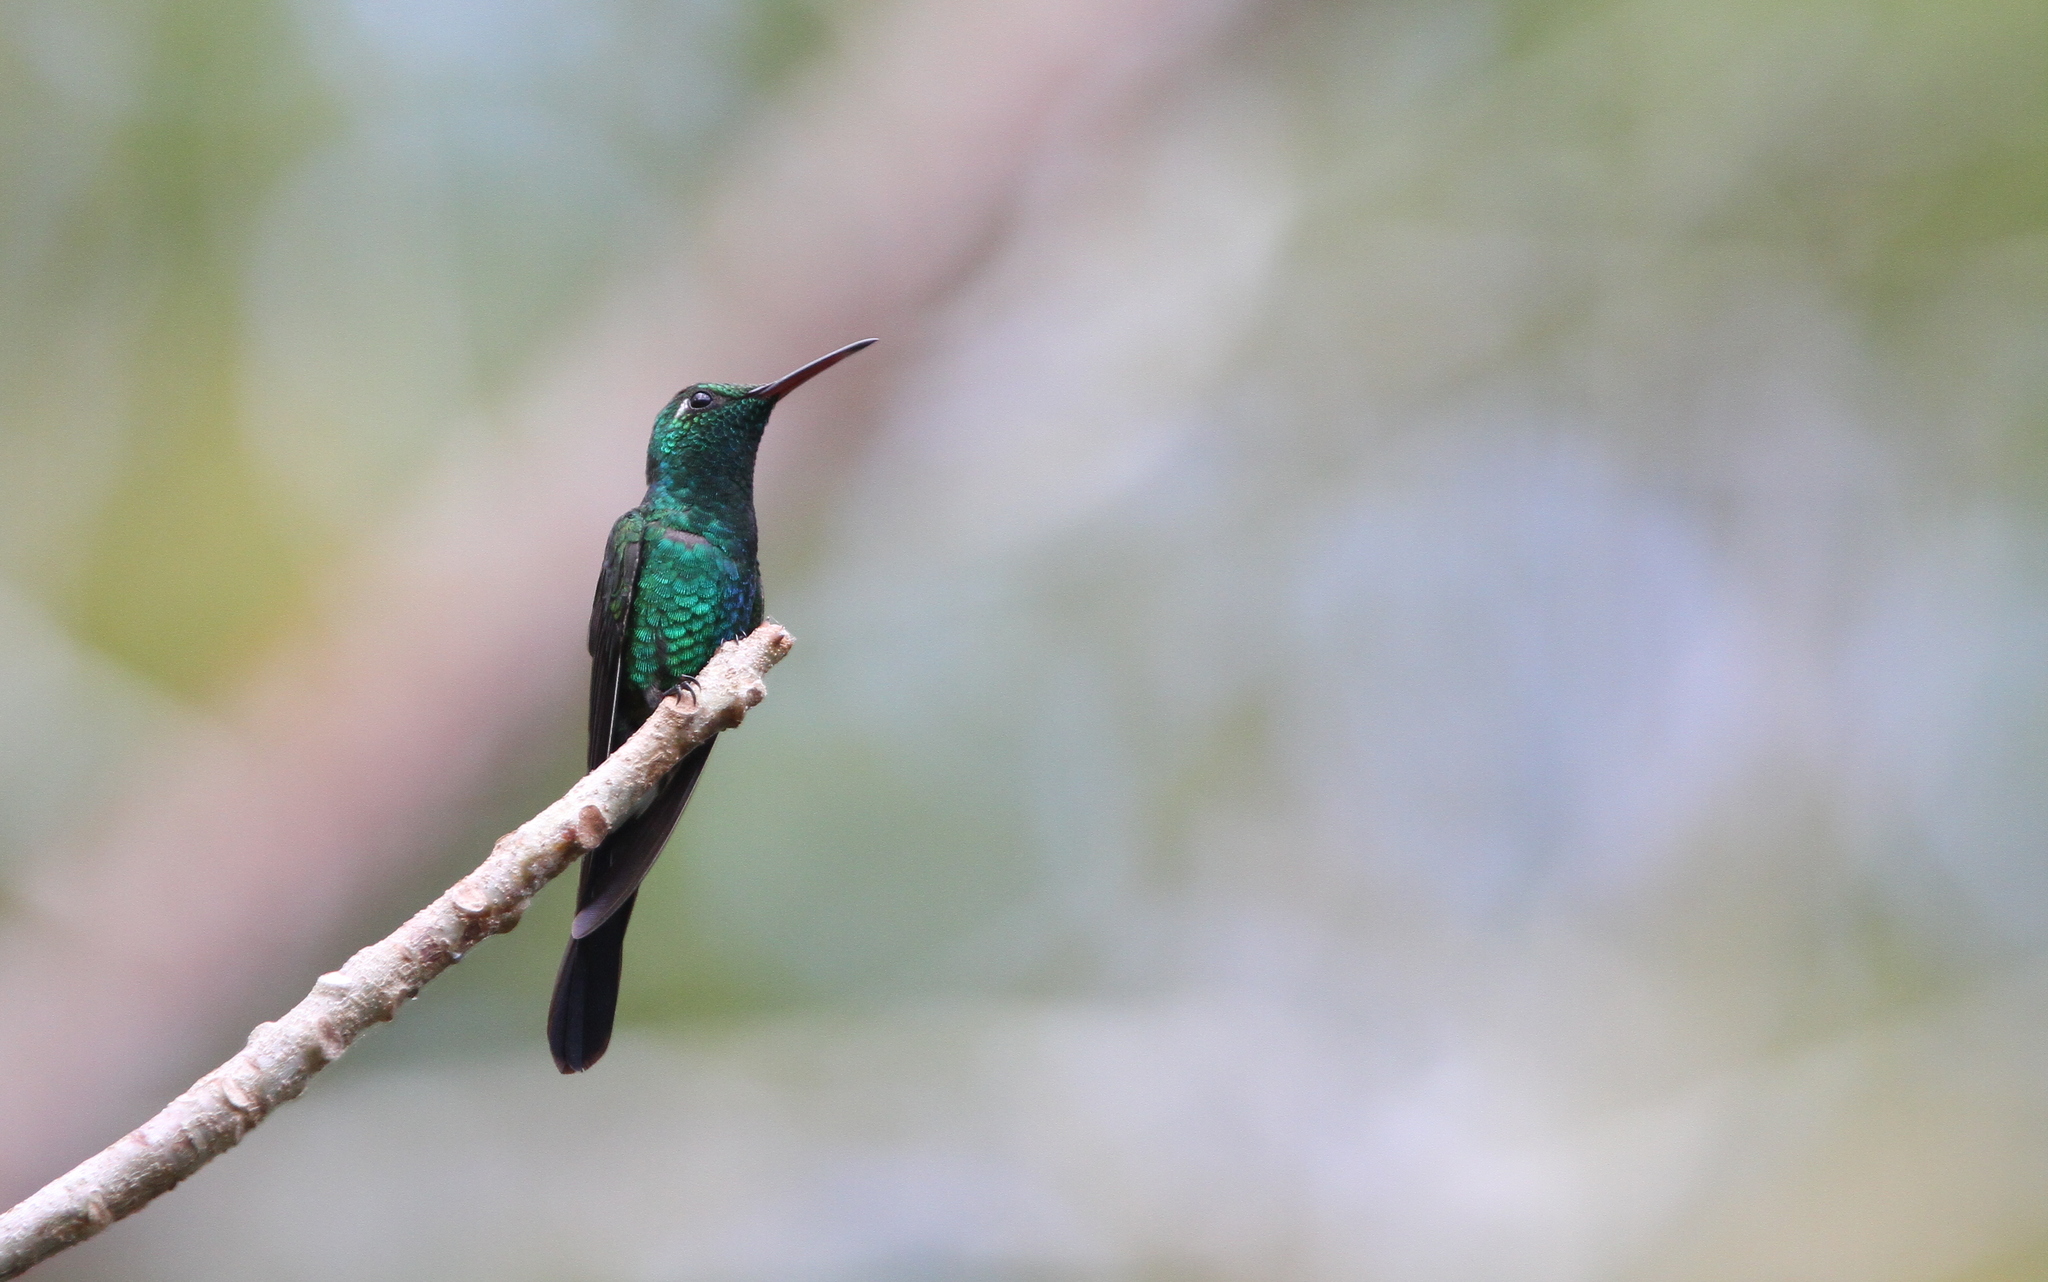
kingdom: Animalia
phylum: Chordata
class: Aves
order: Apodiformes
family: Trochilidae
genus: Riccordia
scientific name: Riccordia ricordii
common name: Cuban emerald
